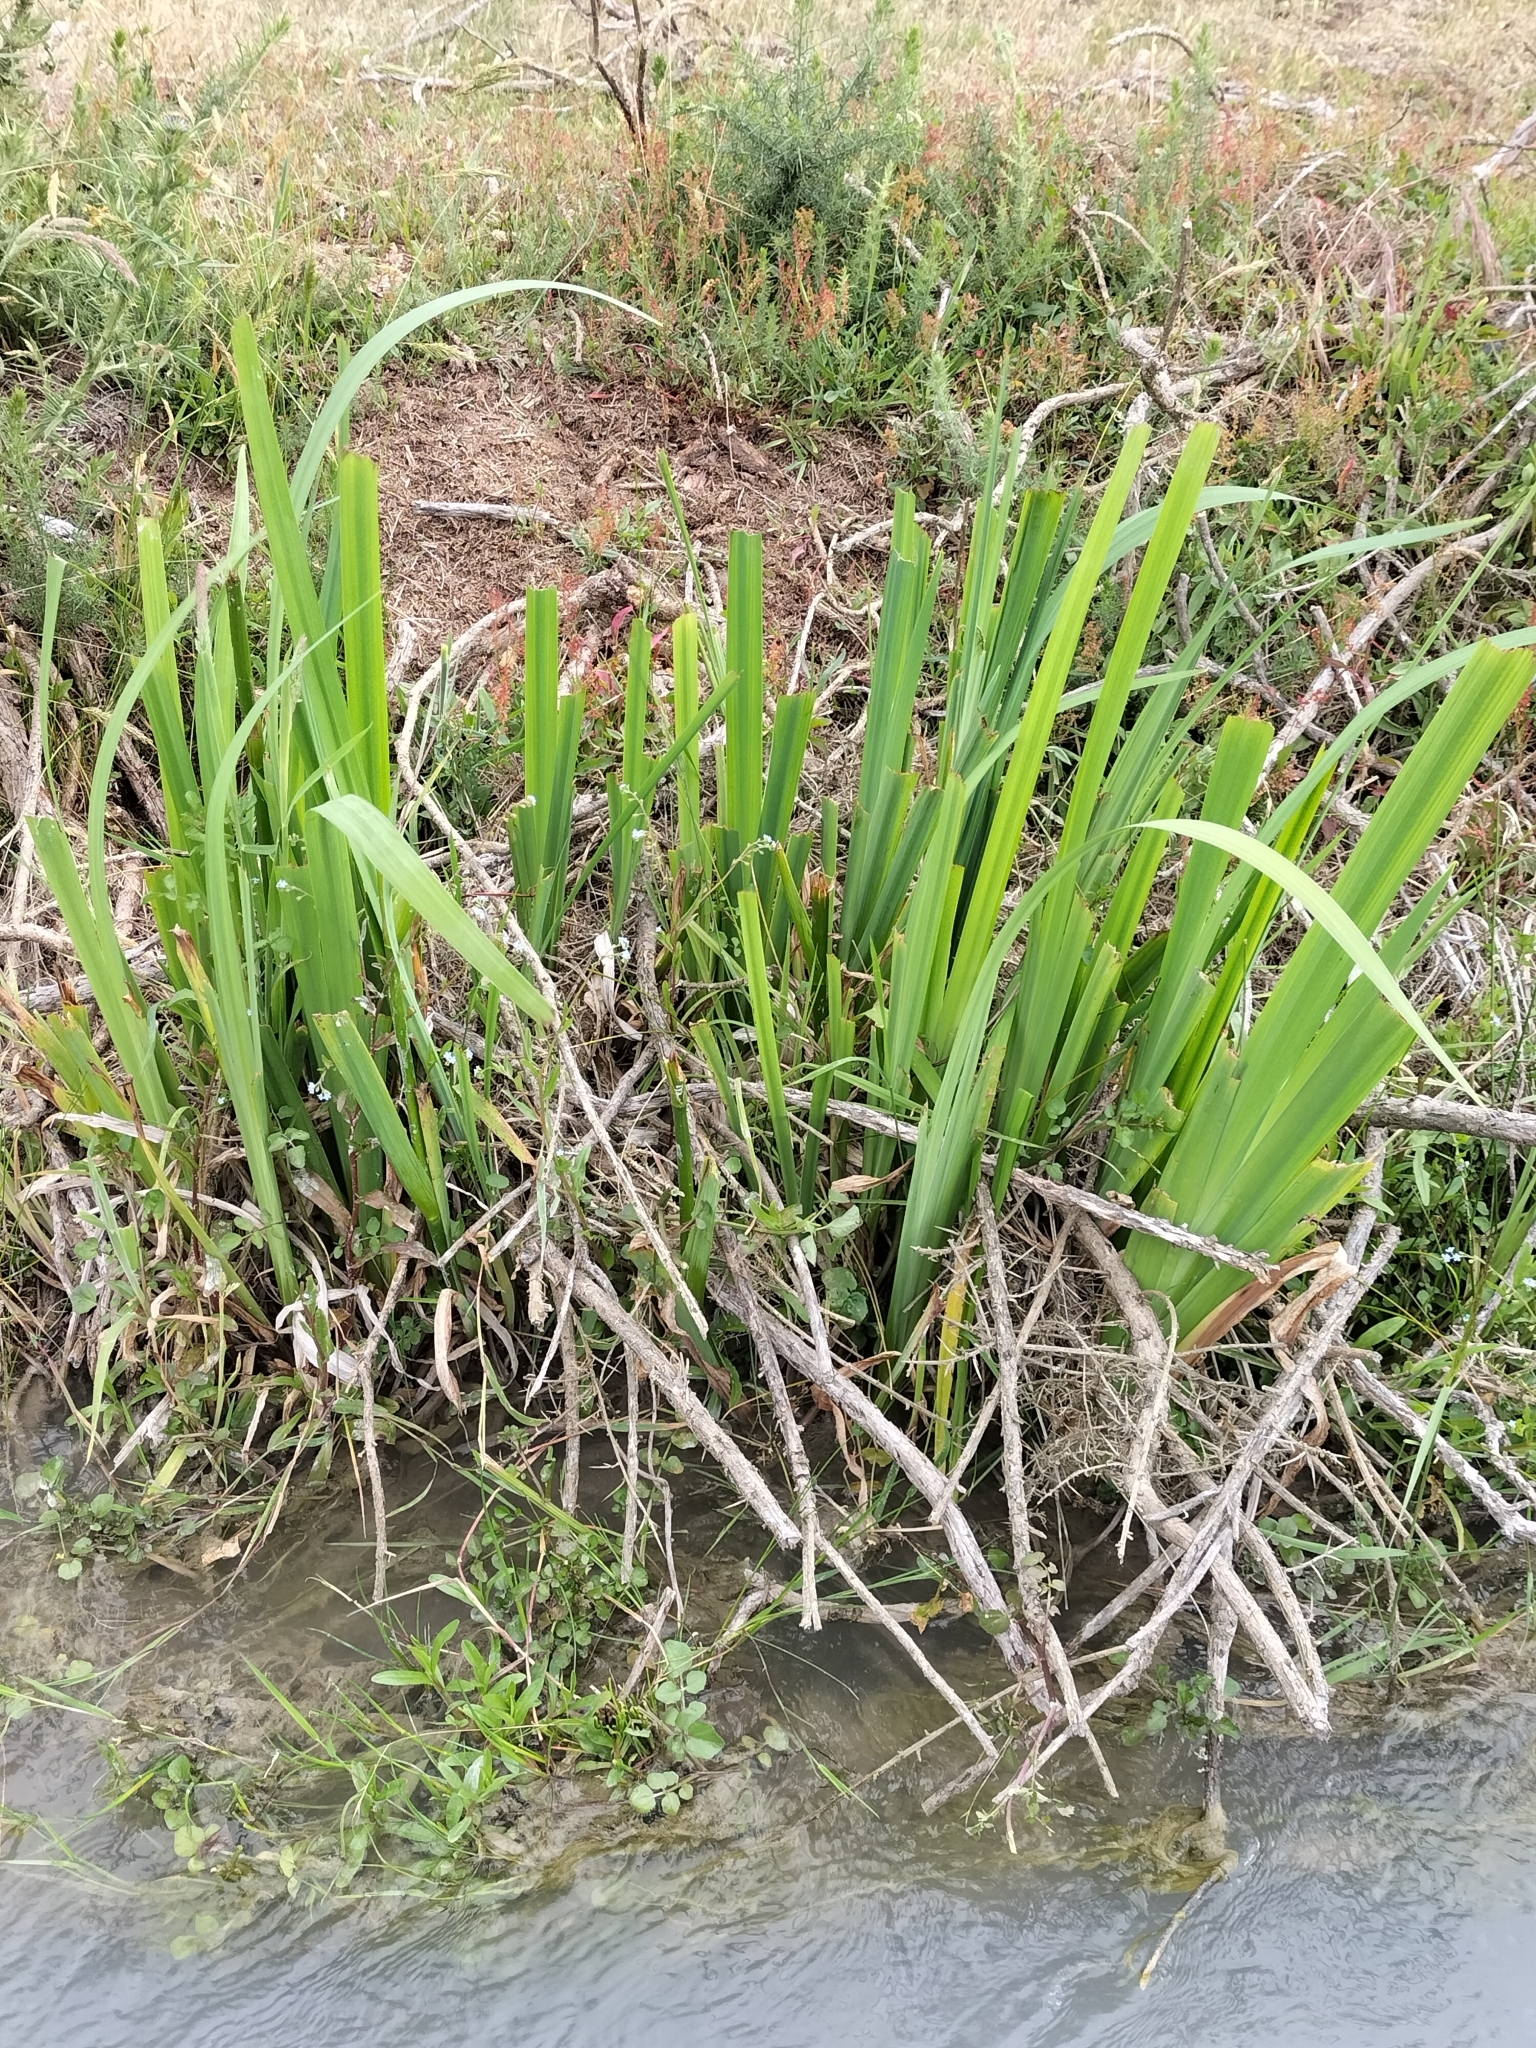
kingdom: Plantae
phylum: Tracheophyta
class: Liliopsida
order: Asparagales
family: Iridaceae
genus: Iris
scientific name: Iris pseudacorus
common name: Yellow flag
